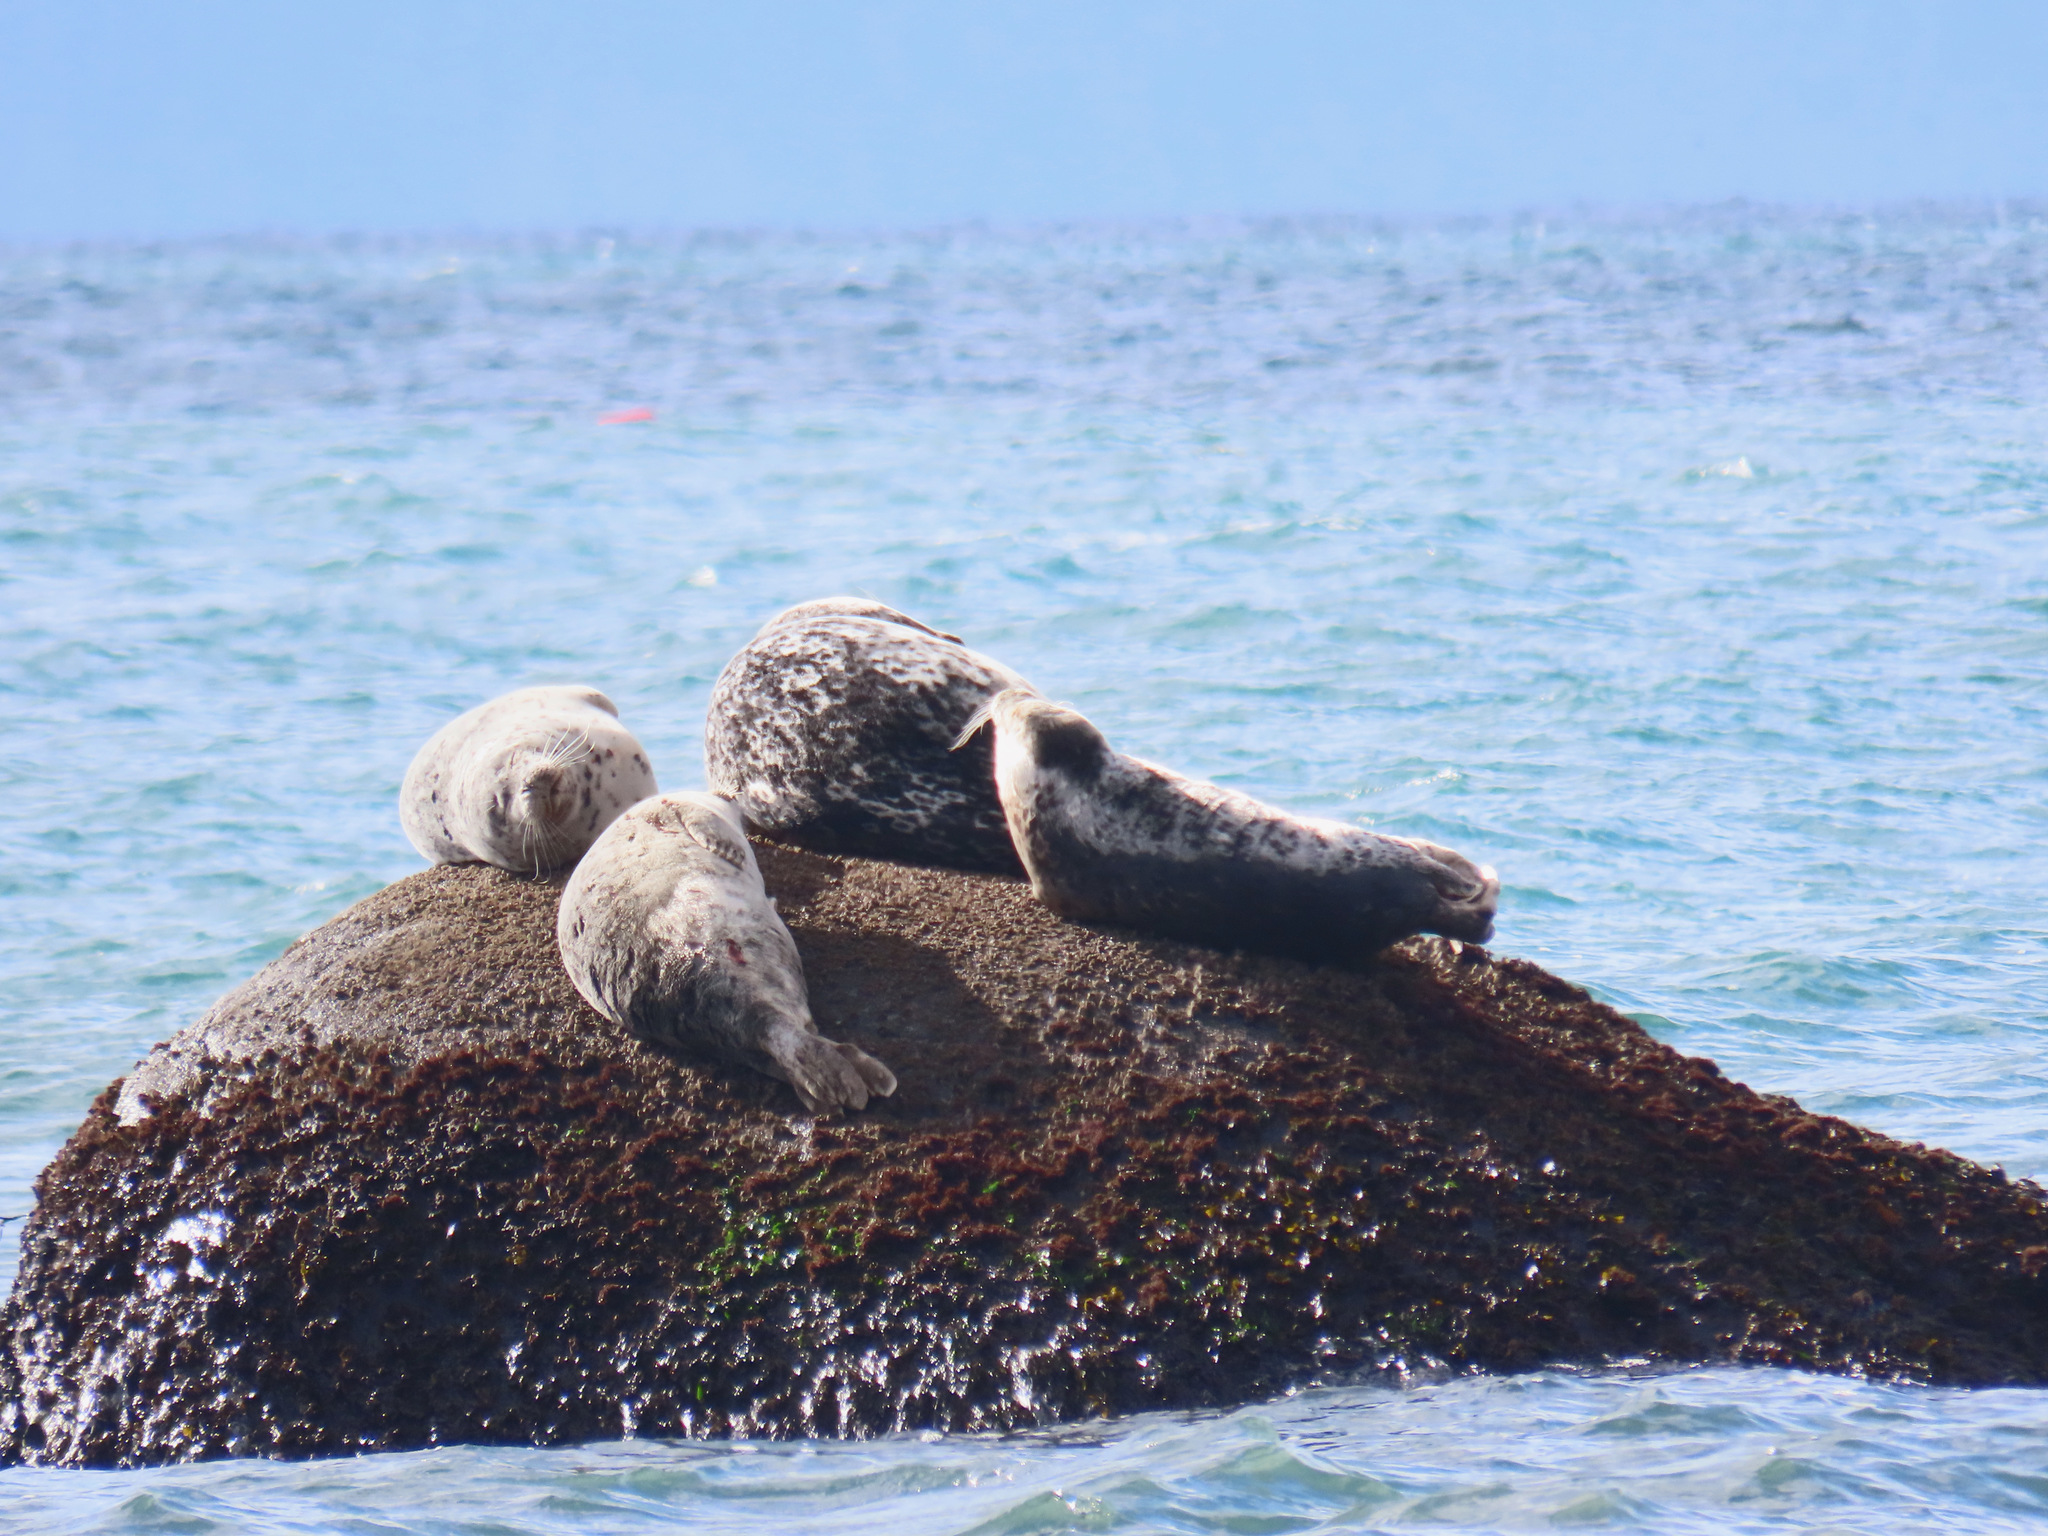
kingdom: Animalia
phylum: Chordata
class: Mammalia
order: Carnivora
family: Phocidae
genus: Phoca
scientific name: Phoca vitulina
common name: Harbor seal
